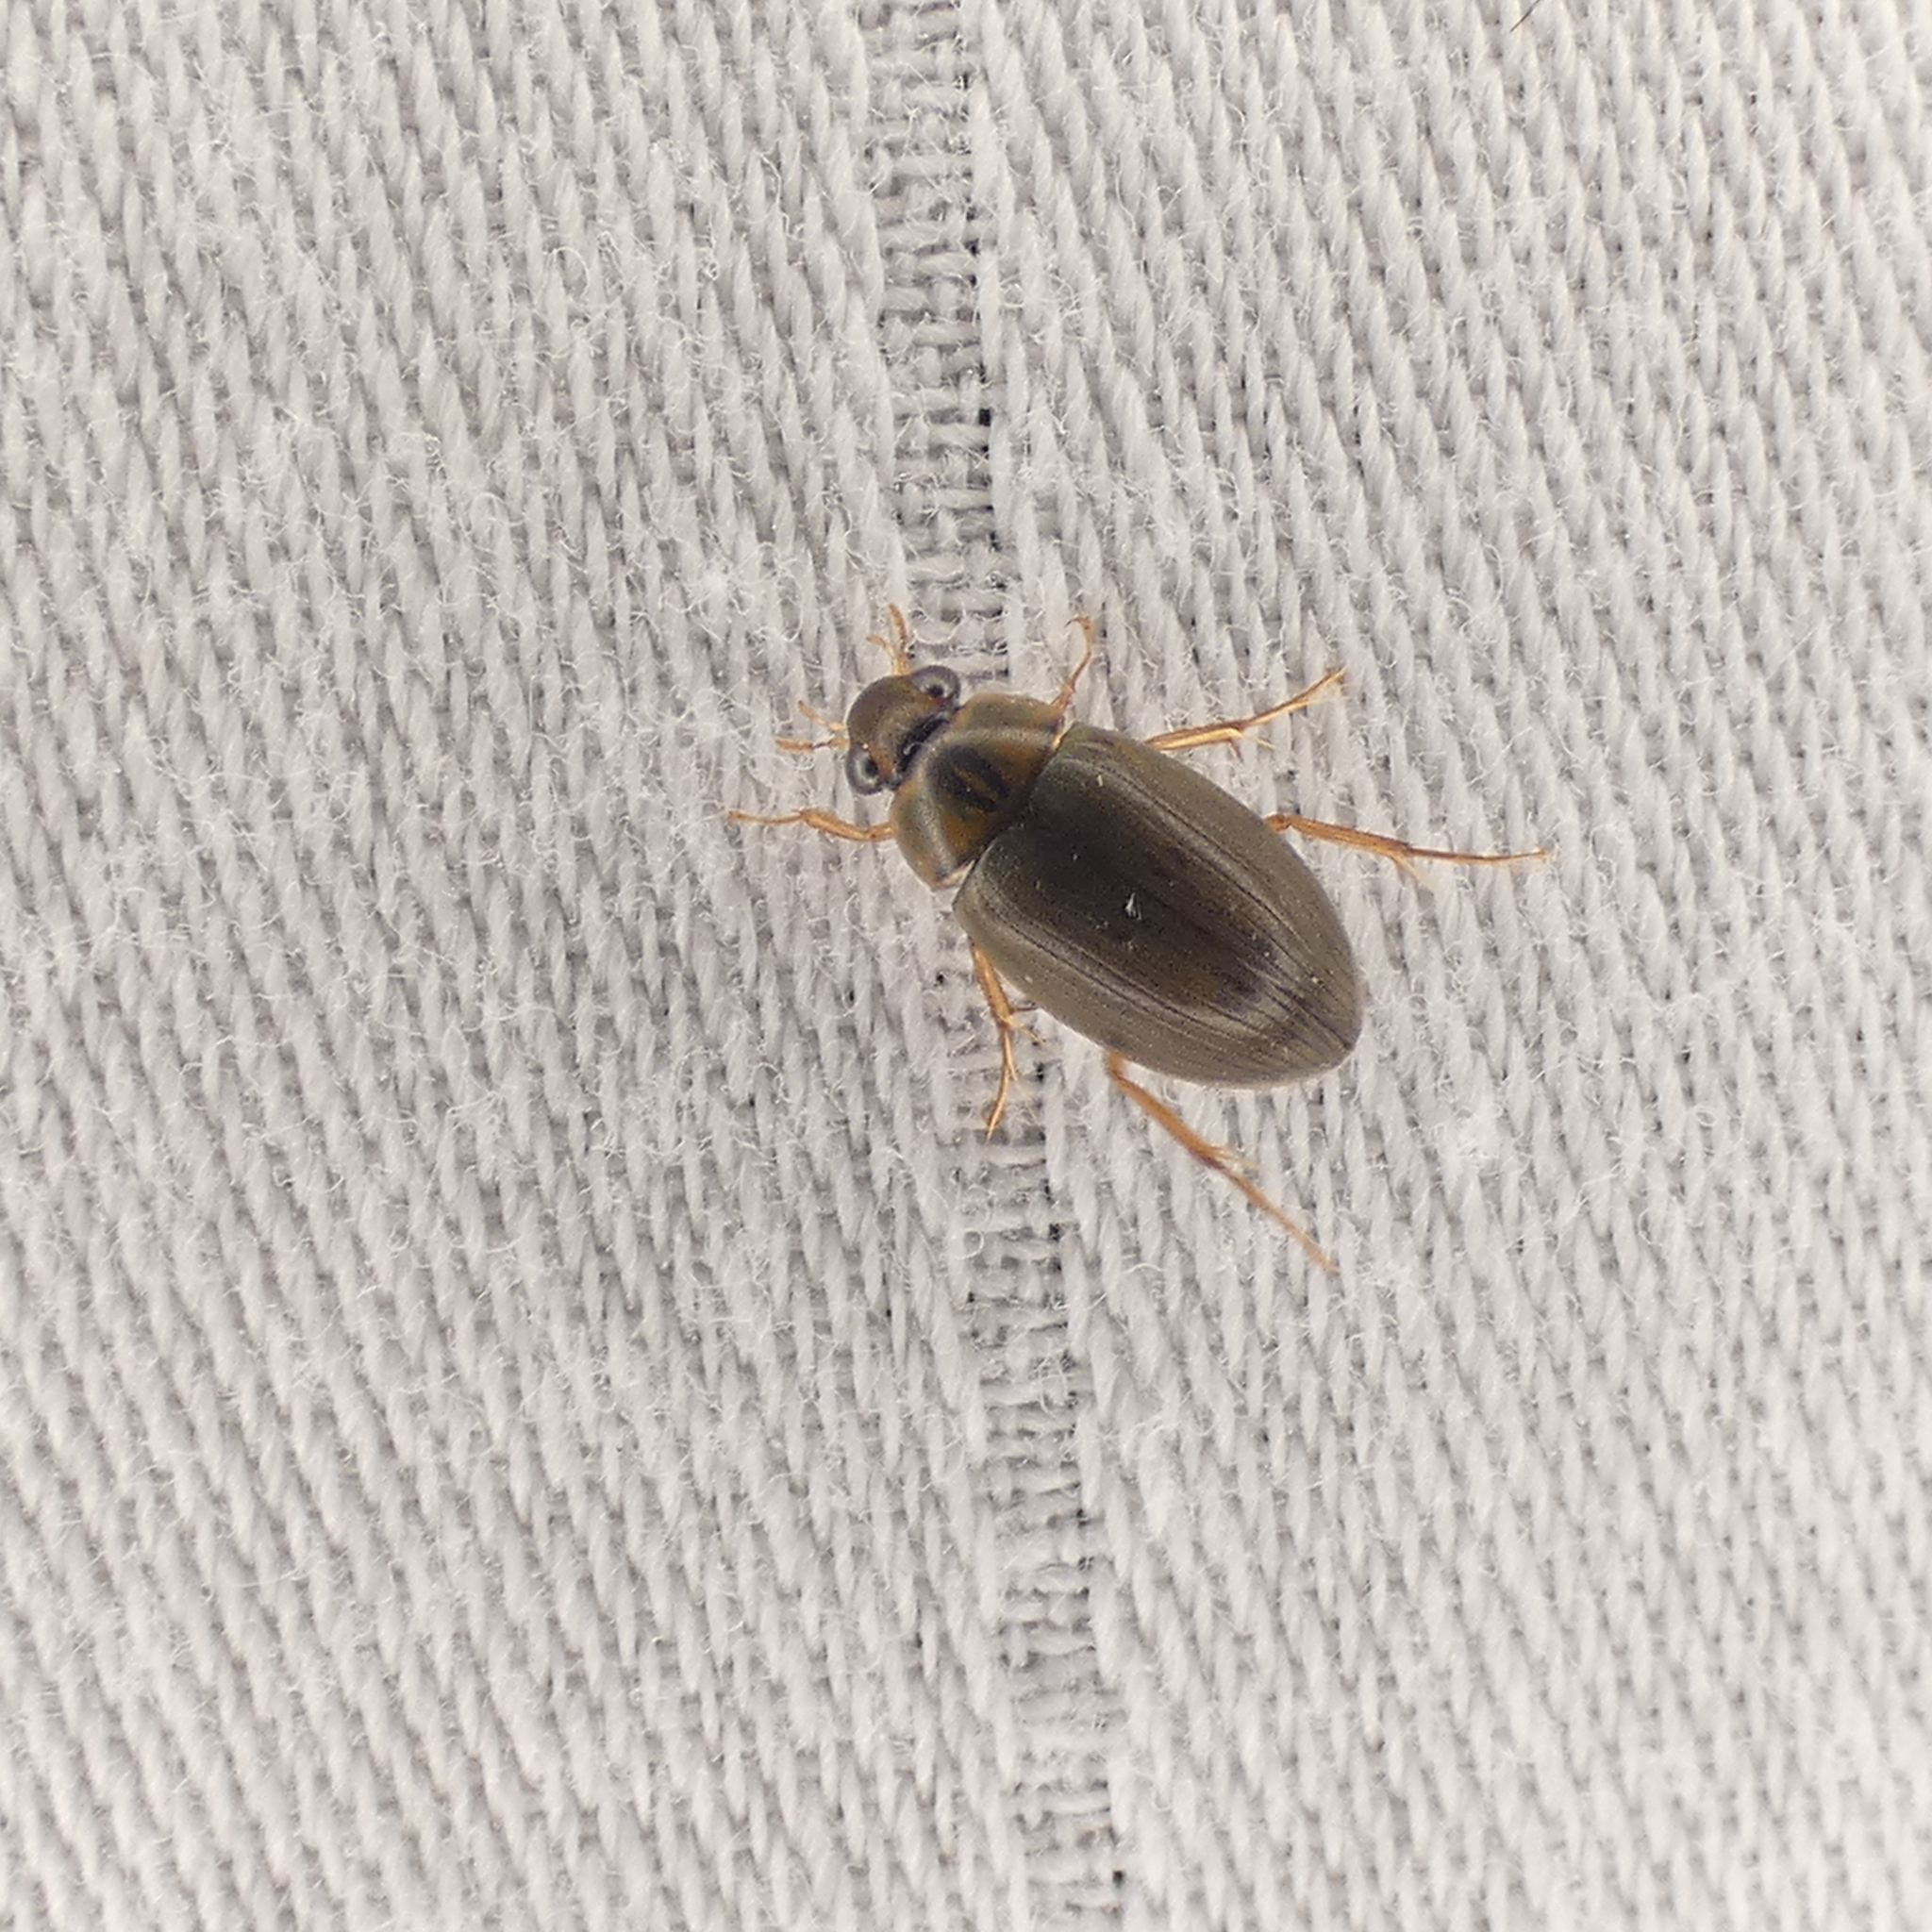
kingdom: Animalia
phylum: Arthropoda
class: Insecta
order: Coleoptera
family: Hydrophilidae
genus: Berosus
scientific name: Berosus
